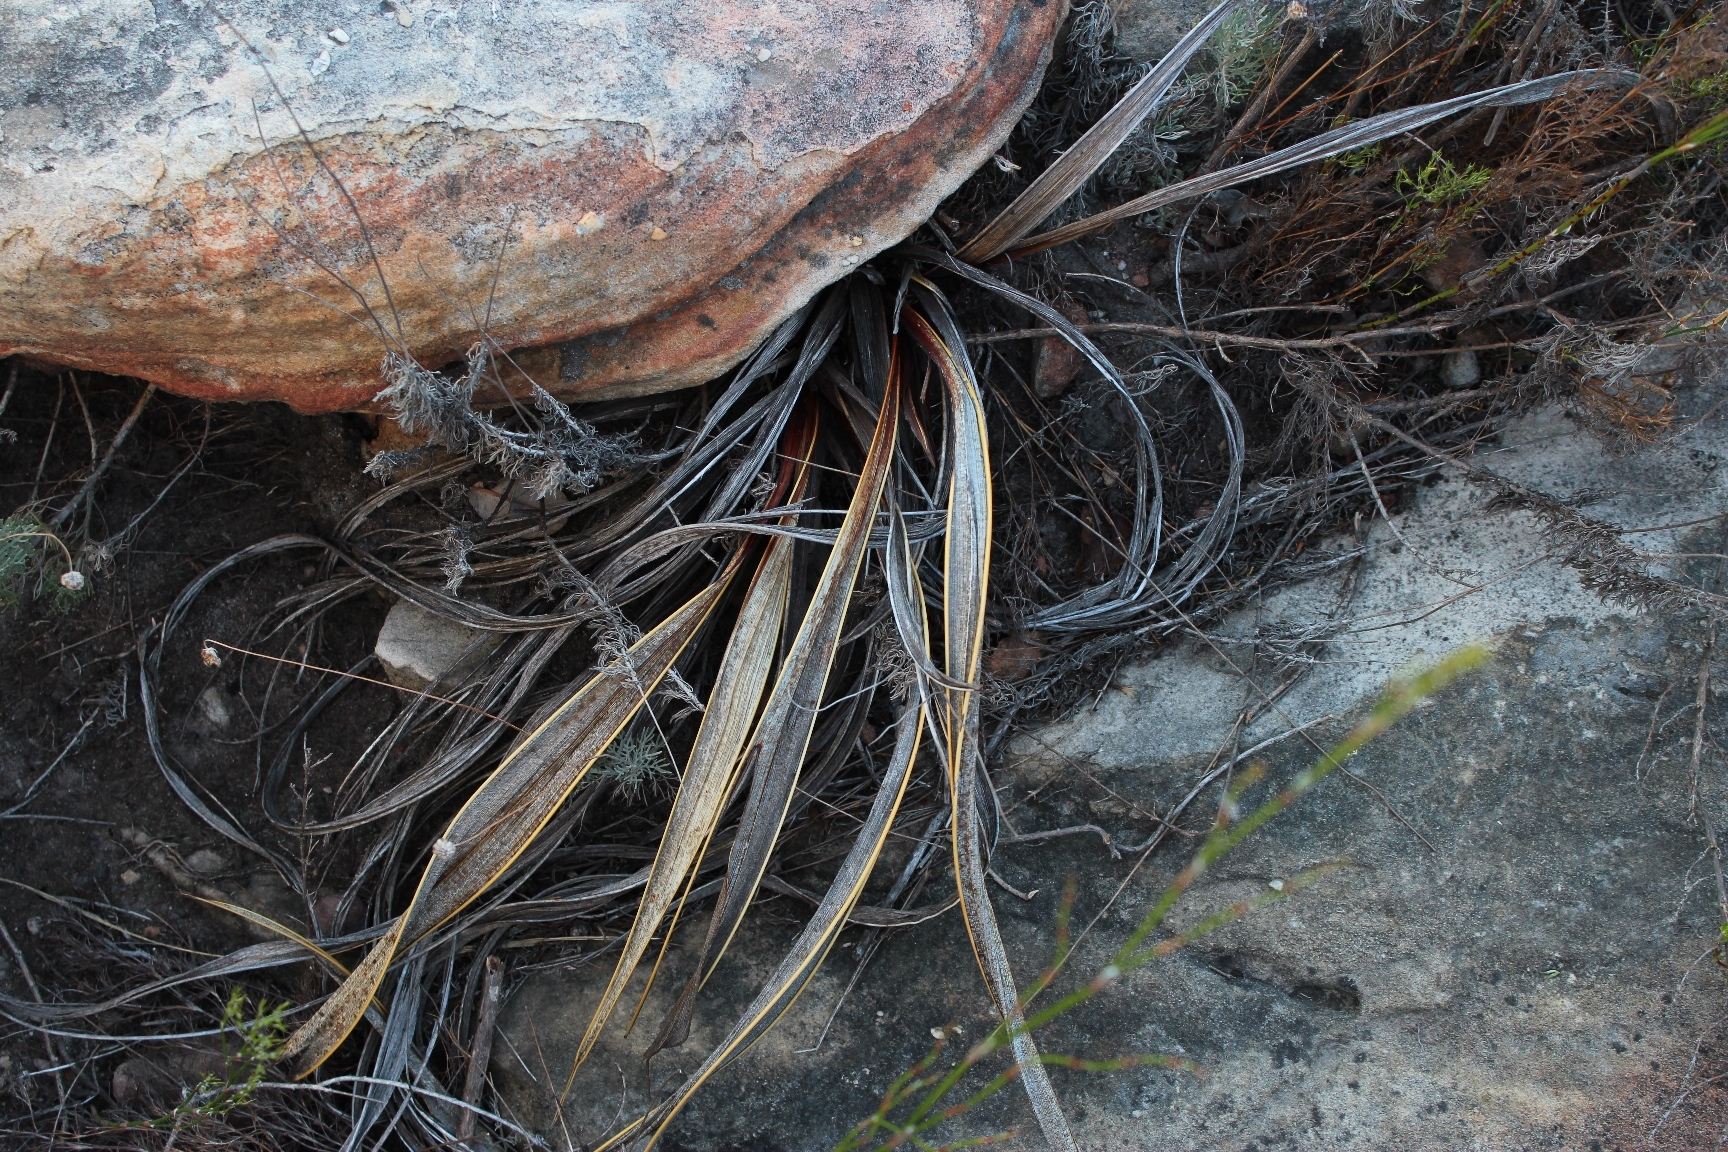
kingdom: Plantae
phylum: Tracheophyta
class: Liliopsida
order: Asparagales
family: Iridaceae
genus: Watsonia
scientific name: Watsonia vanderspuyae
